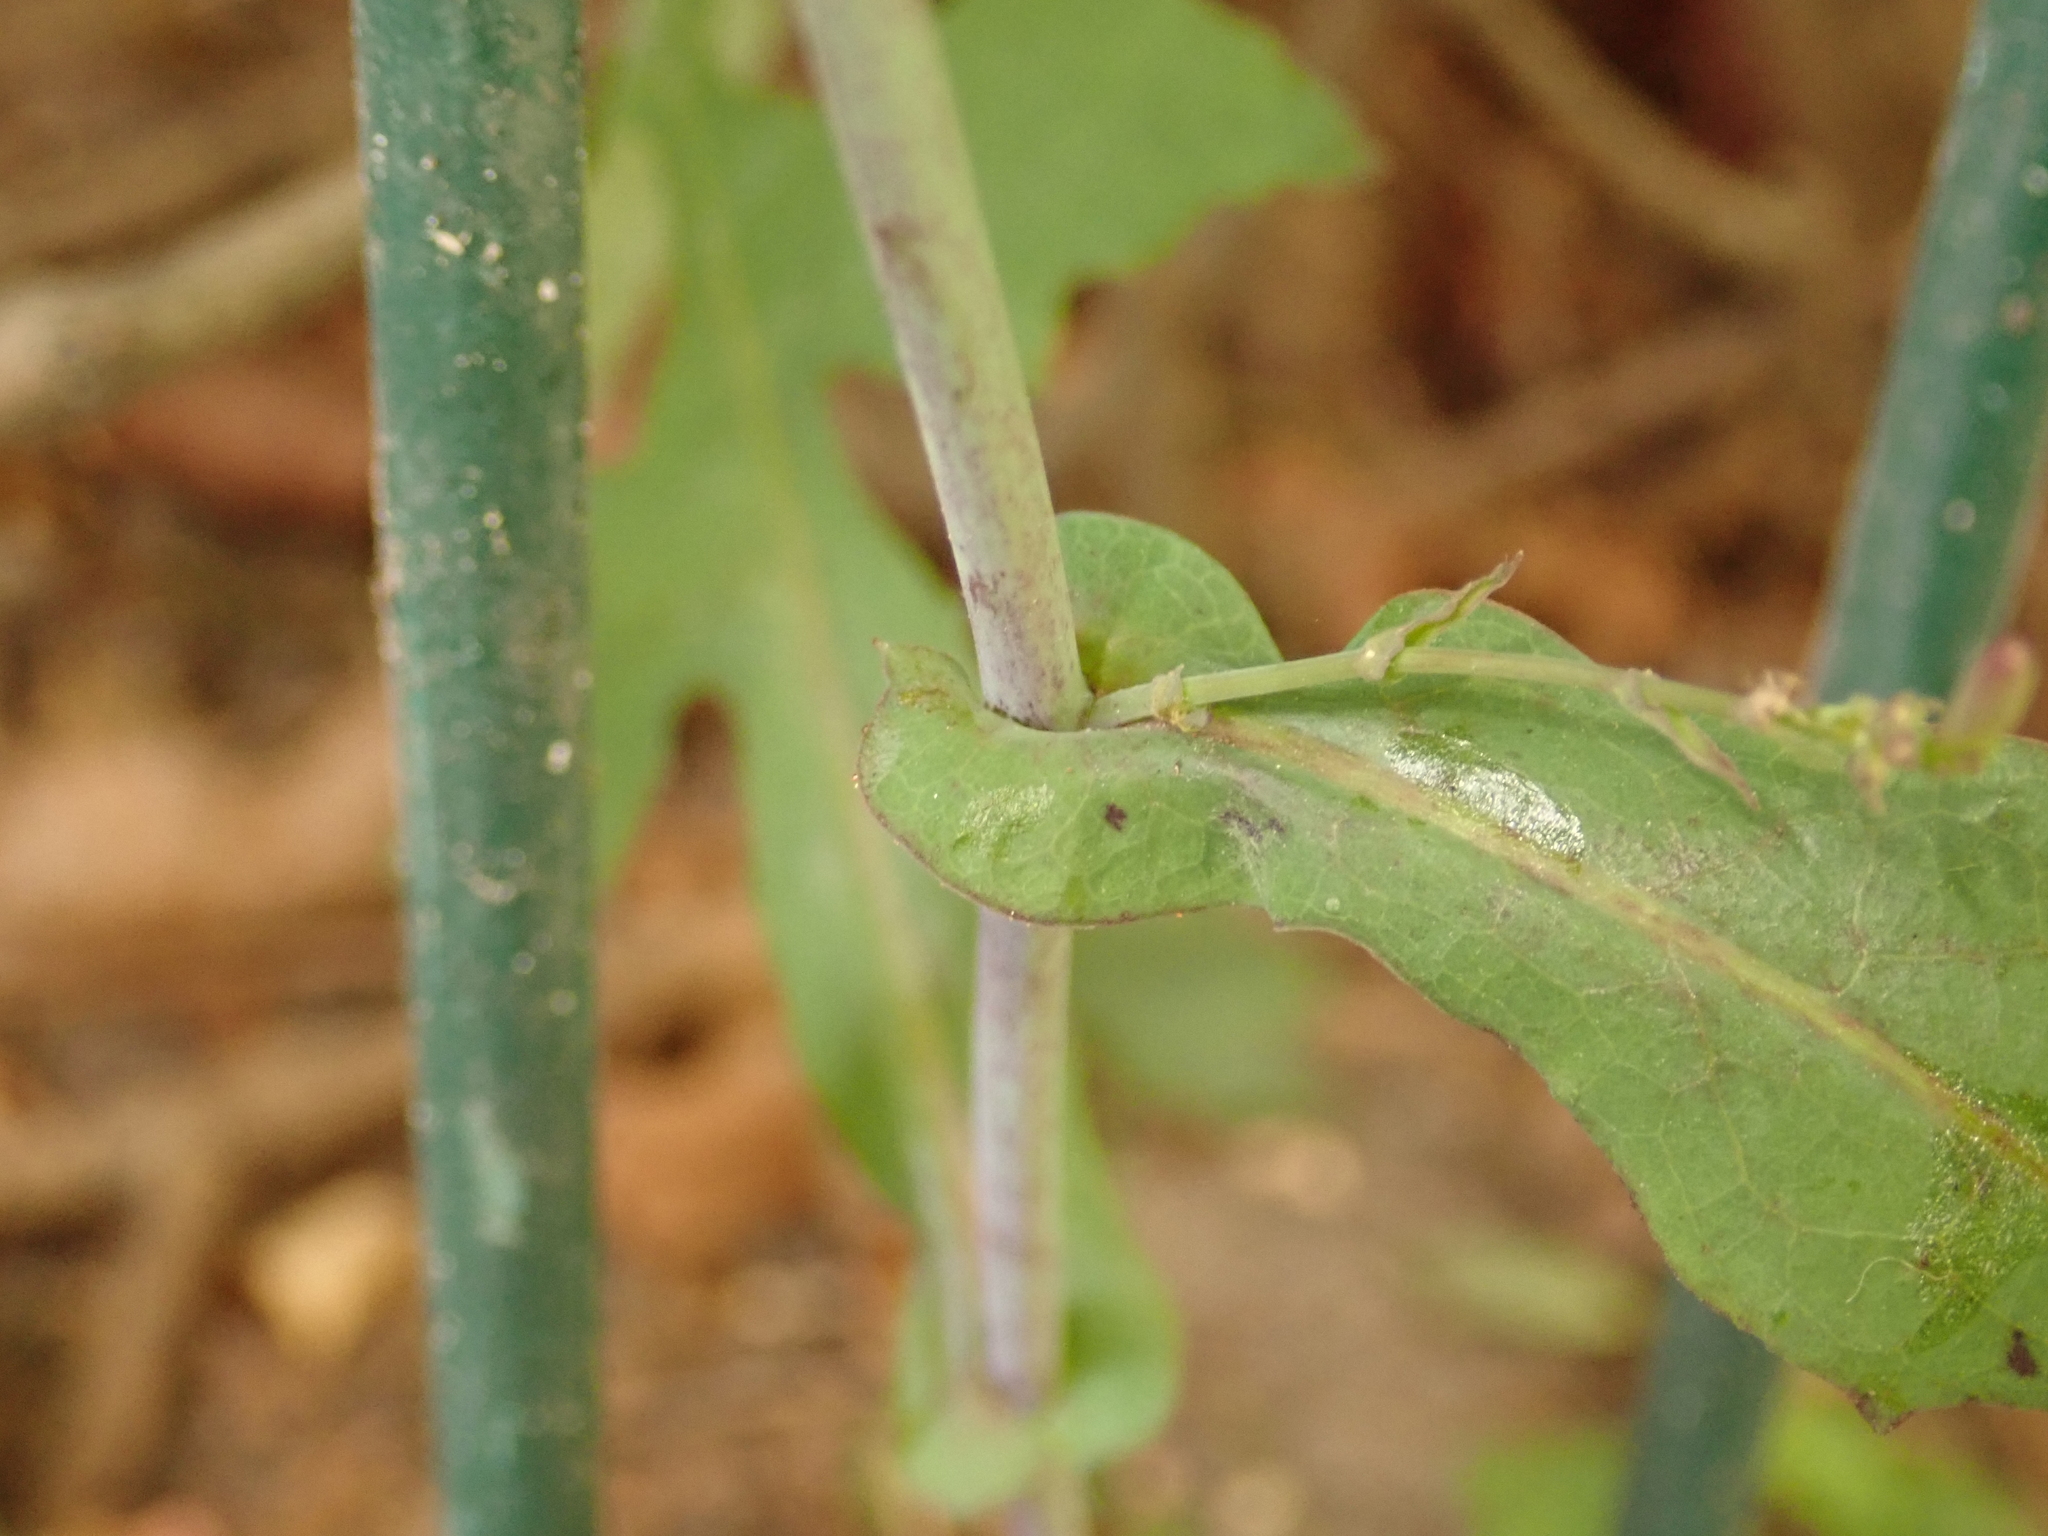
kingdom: Plantae
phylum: Tracheophyta
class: Magnoliopsida
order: Asterales
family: Asteraceae
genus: Mycelis
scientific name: Mycelis muralis
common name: Wall lettuce
